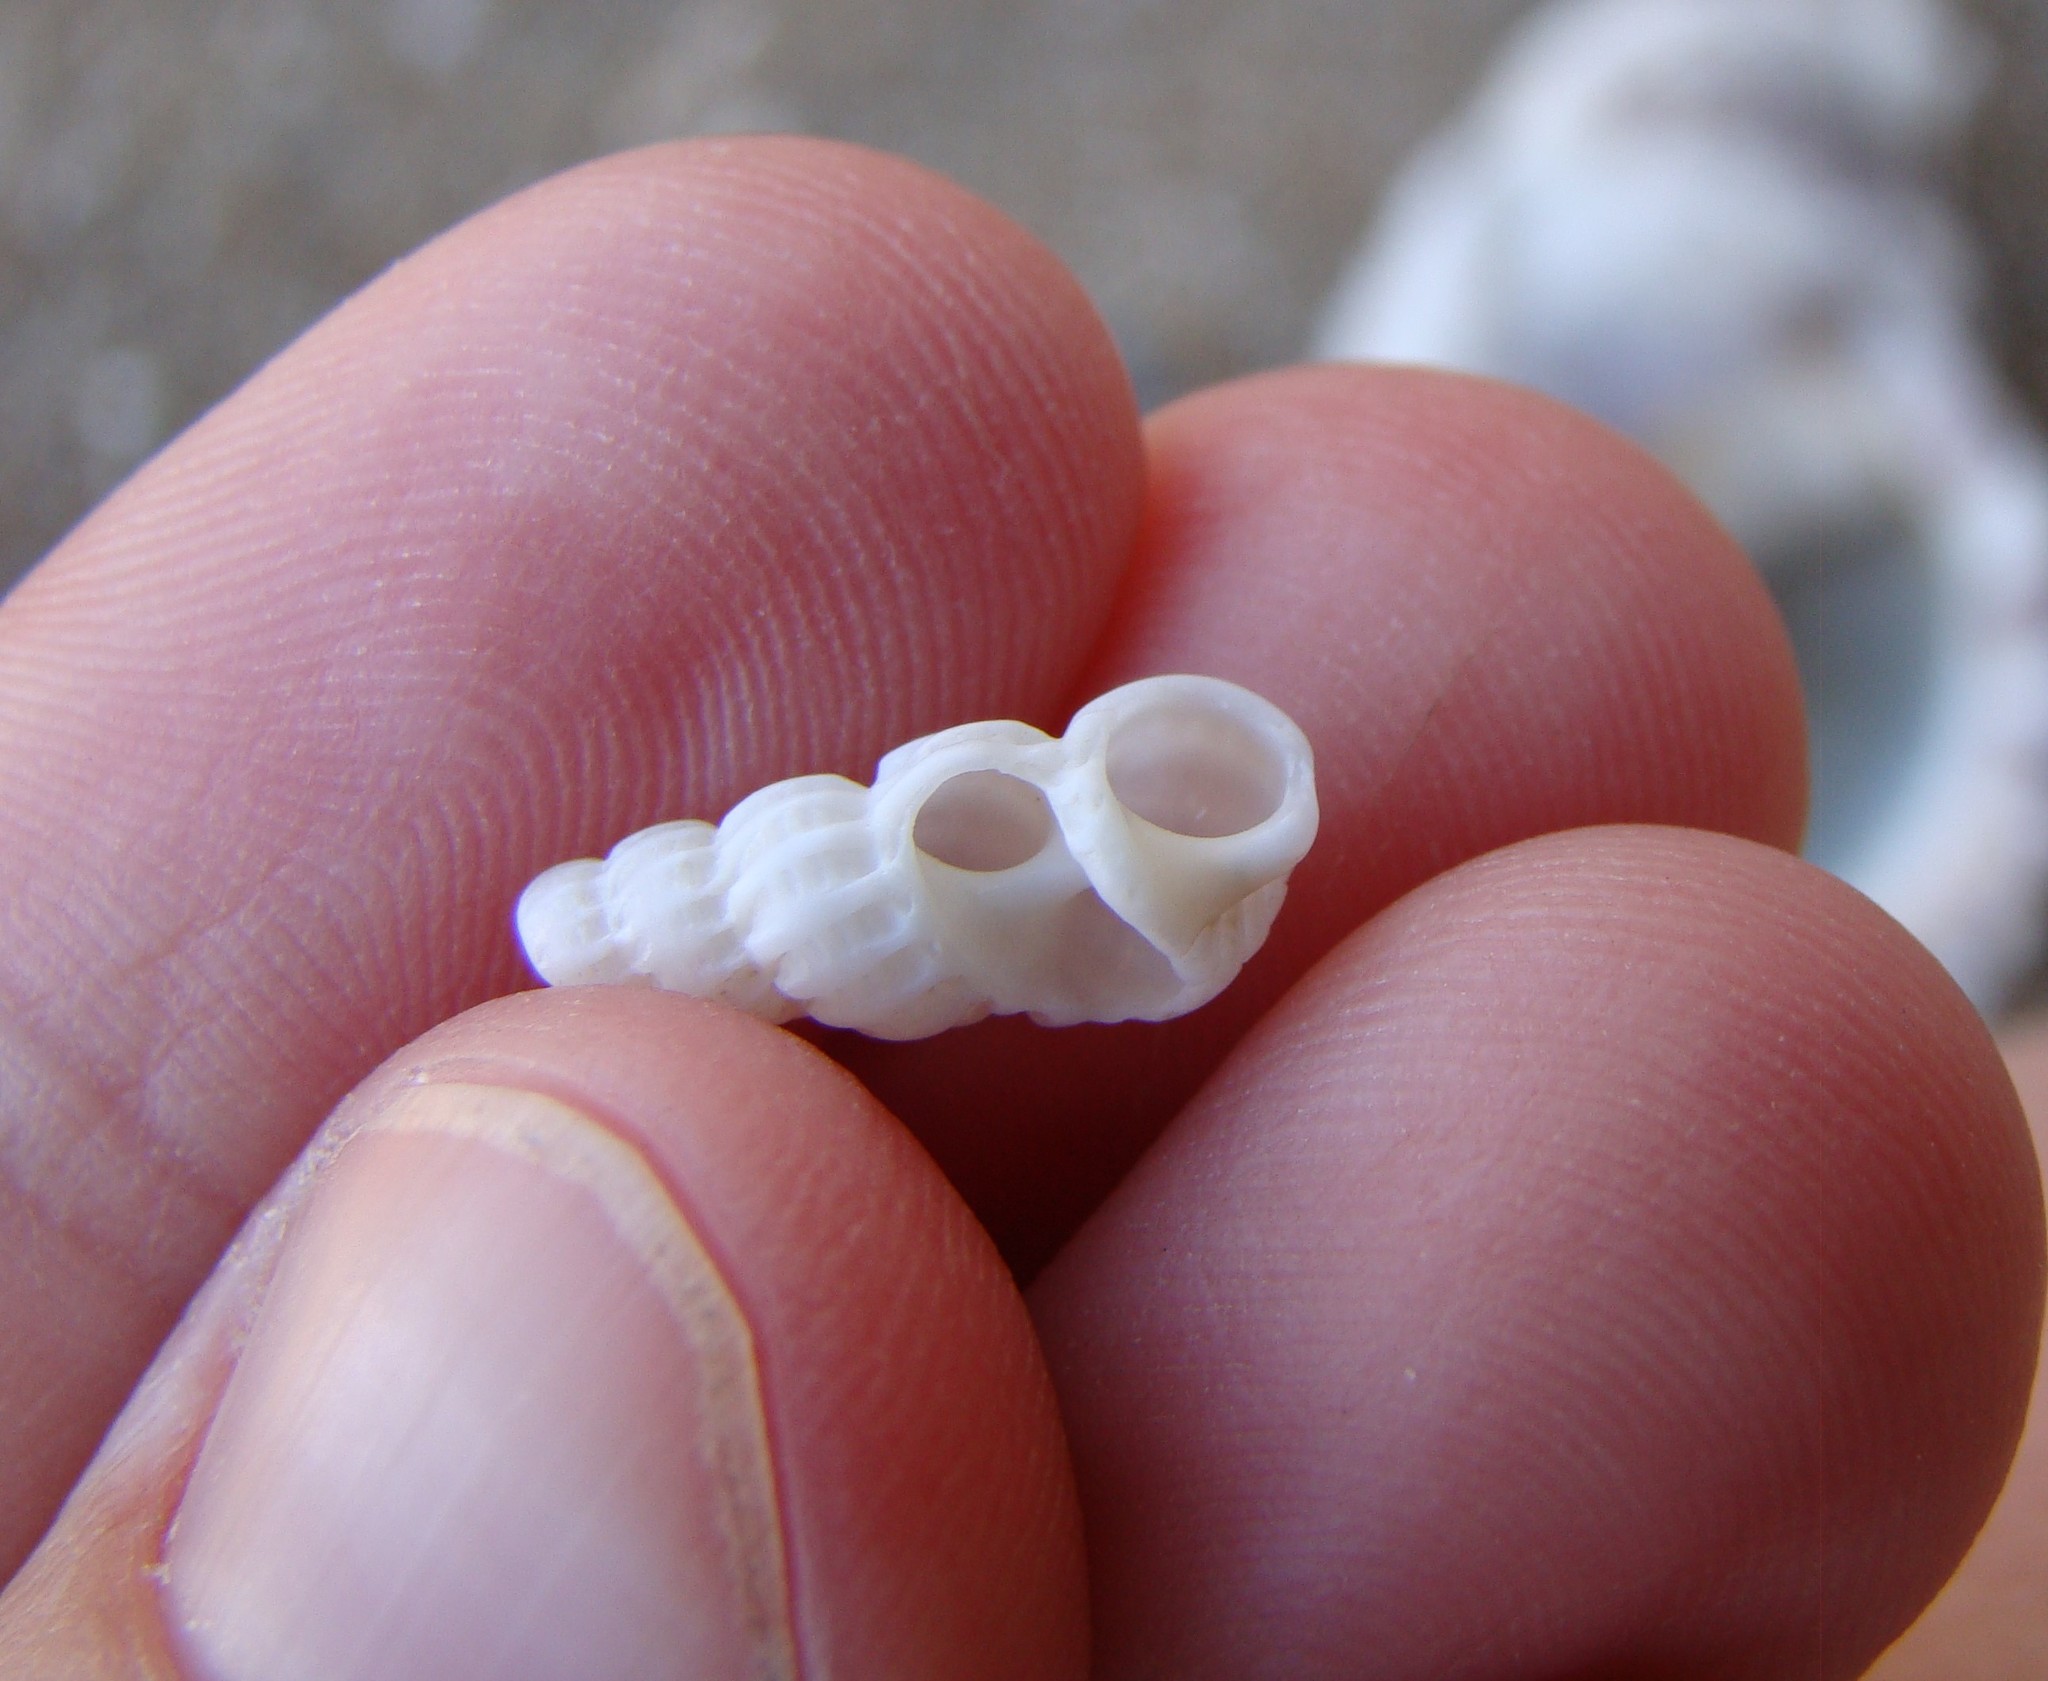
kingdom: Animalia
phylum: Mollusca
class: Gastropoda
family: Epitoniidae
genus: Cirsotrema
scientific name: Cirsotrema zelebori
